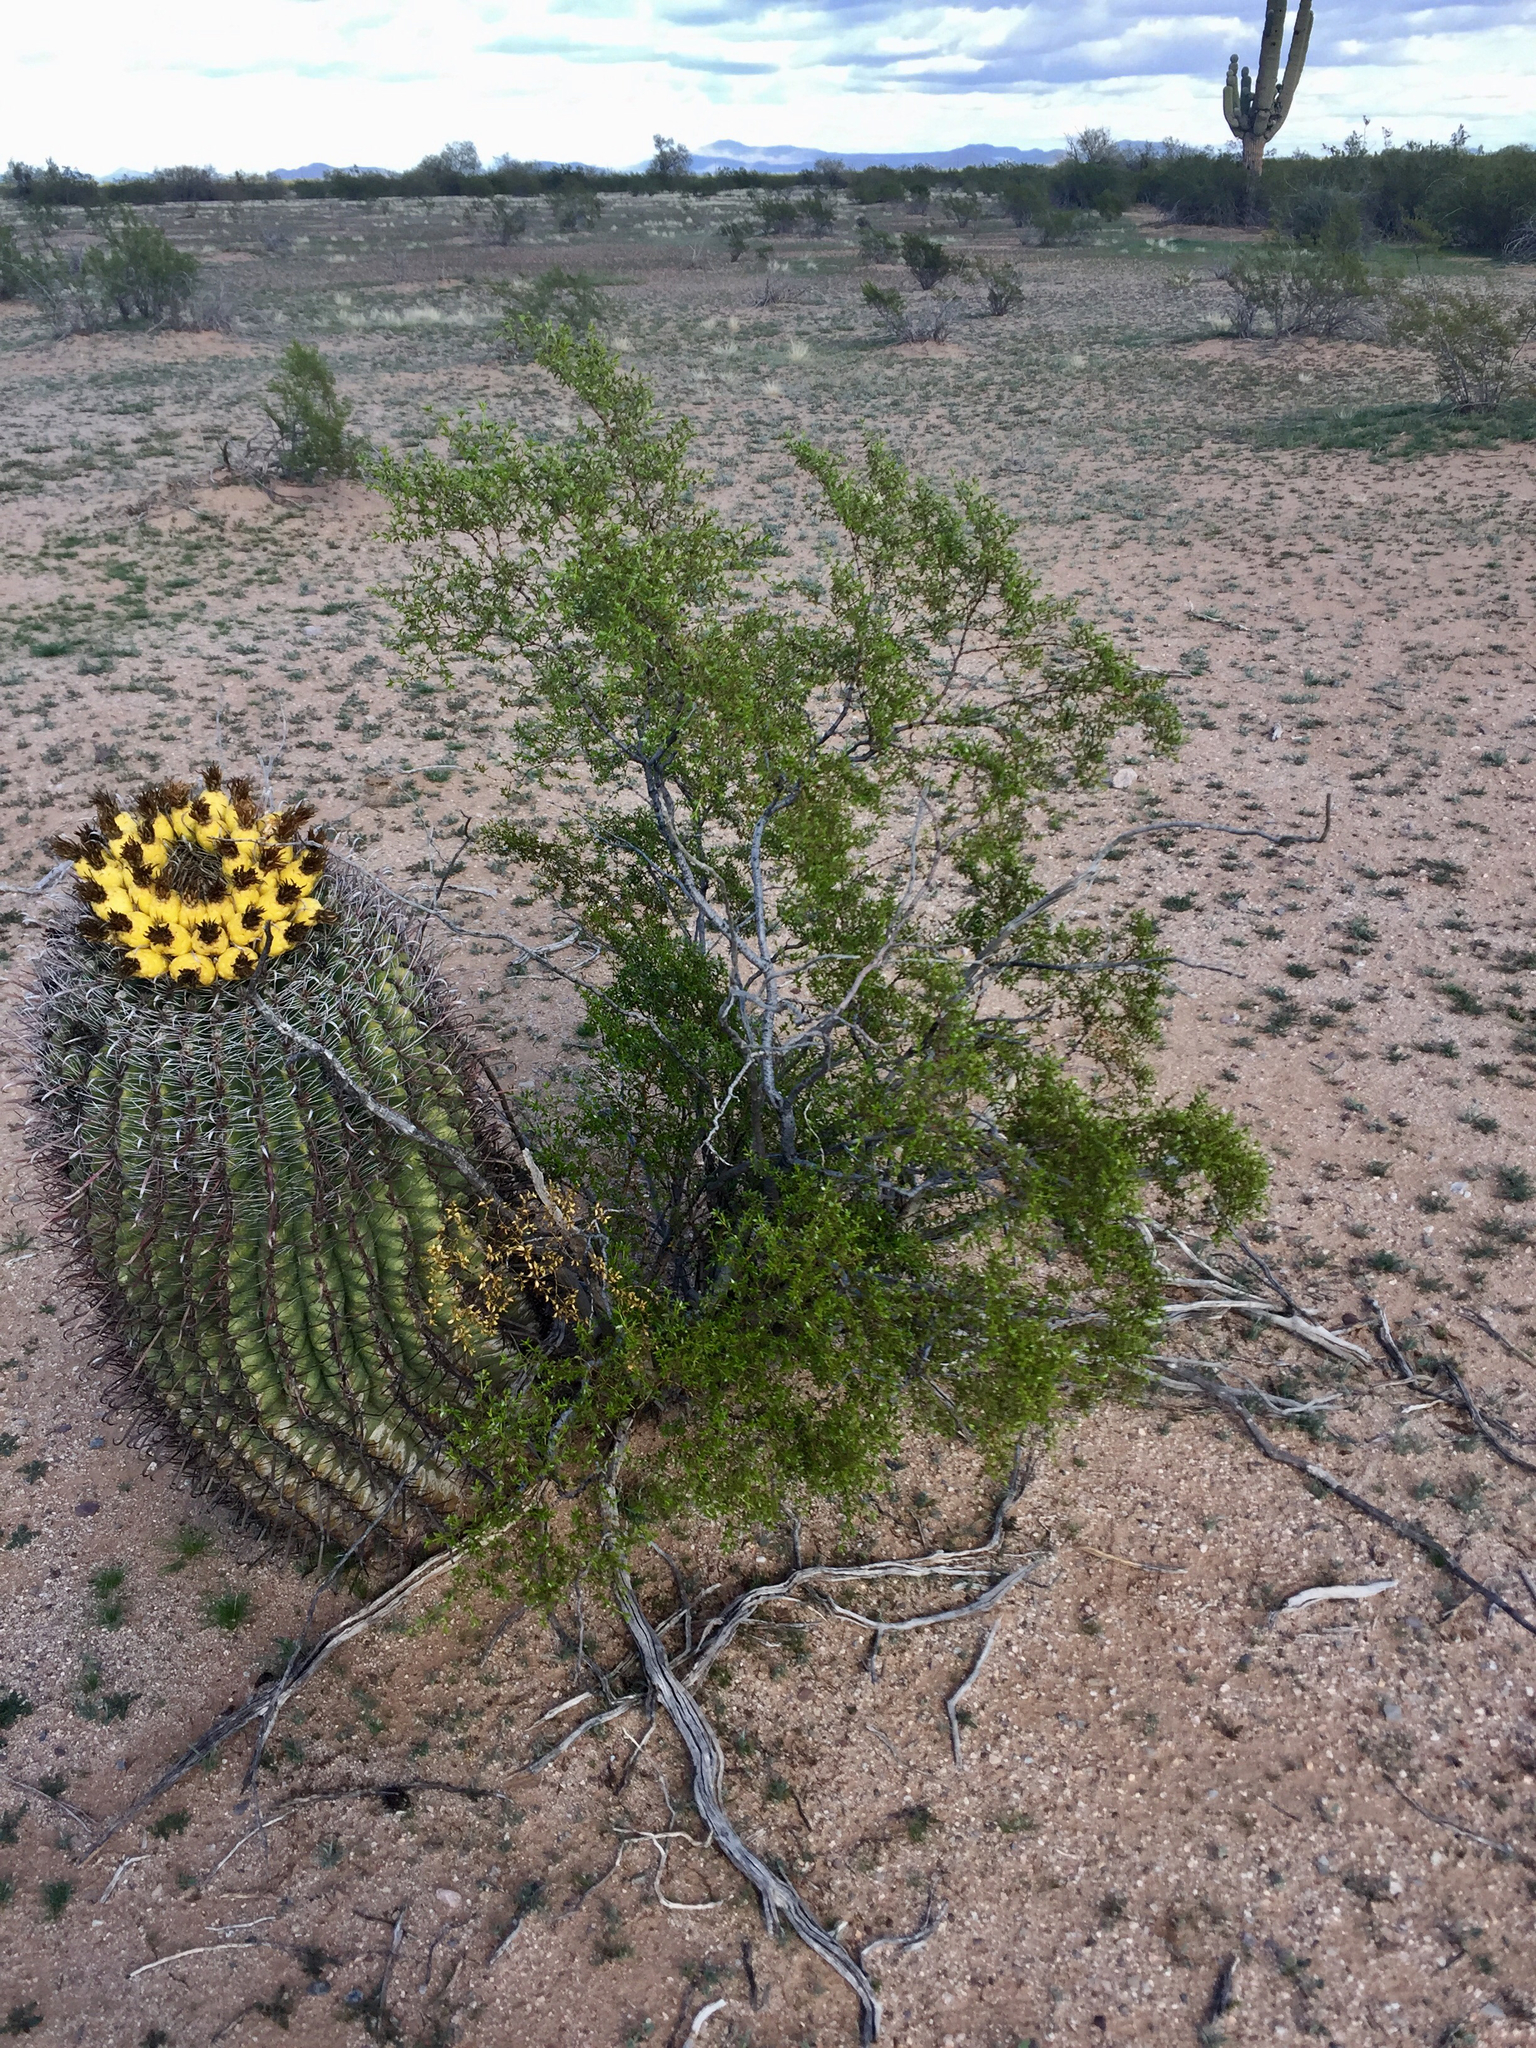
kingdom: Plantae
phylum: Tracheophyta
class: Magnoliopsida
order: Caryophyllales
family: Cactaceae
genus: Ferocactus
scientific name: Ferocactus wislizeni
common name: Candy barrel cactus
